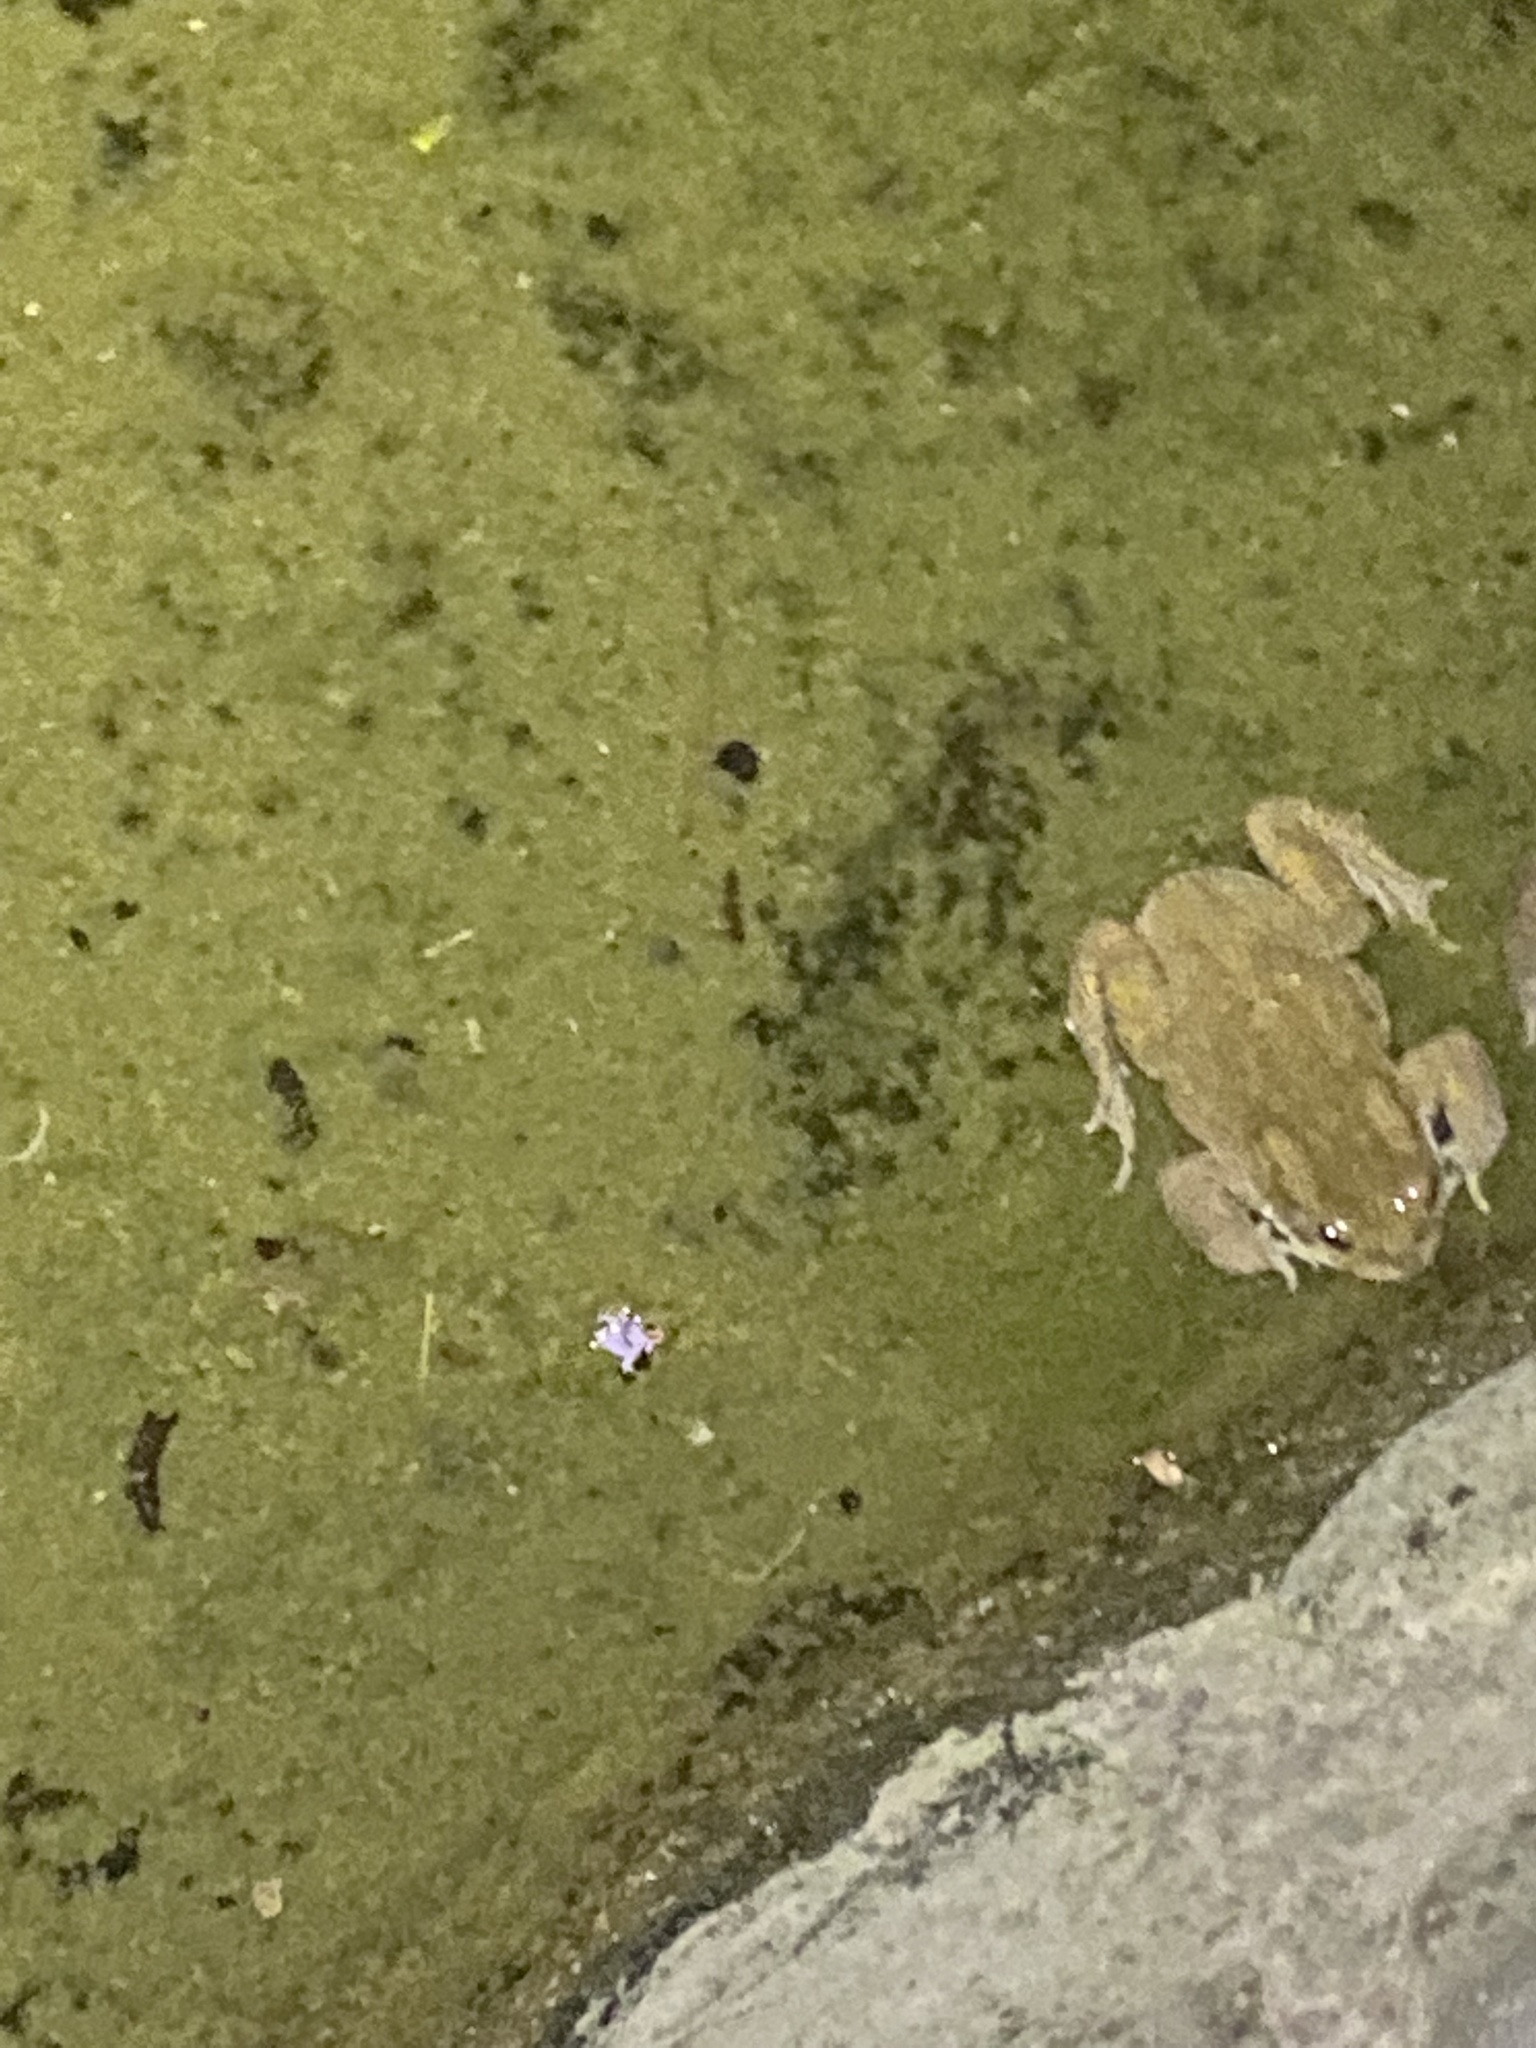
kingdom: Animalia
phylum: Chordata
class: Amphibia
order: Anura
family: Bufonidae
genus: Bufotes
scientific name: Bufotes viridis
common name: European green toad
